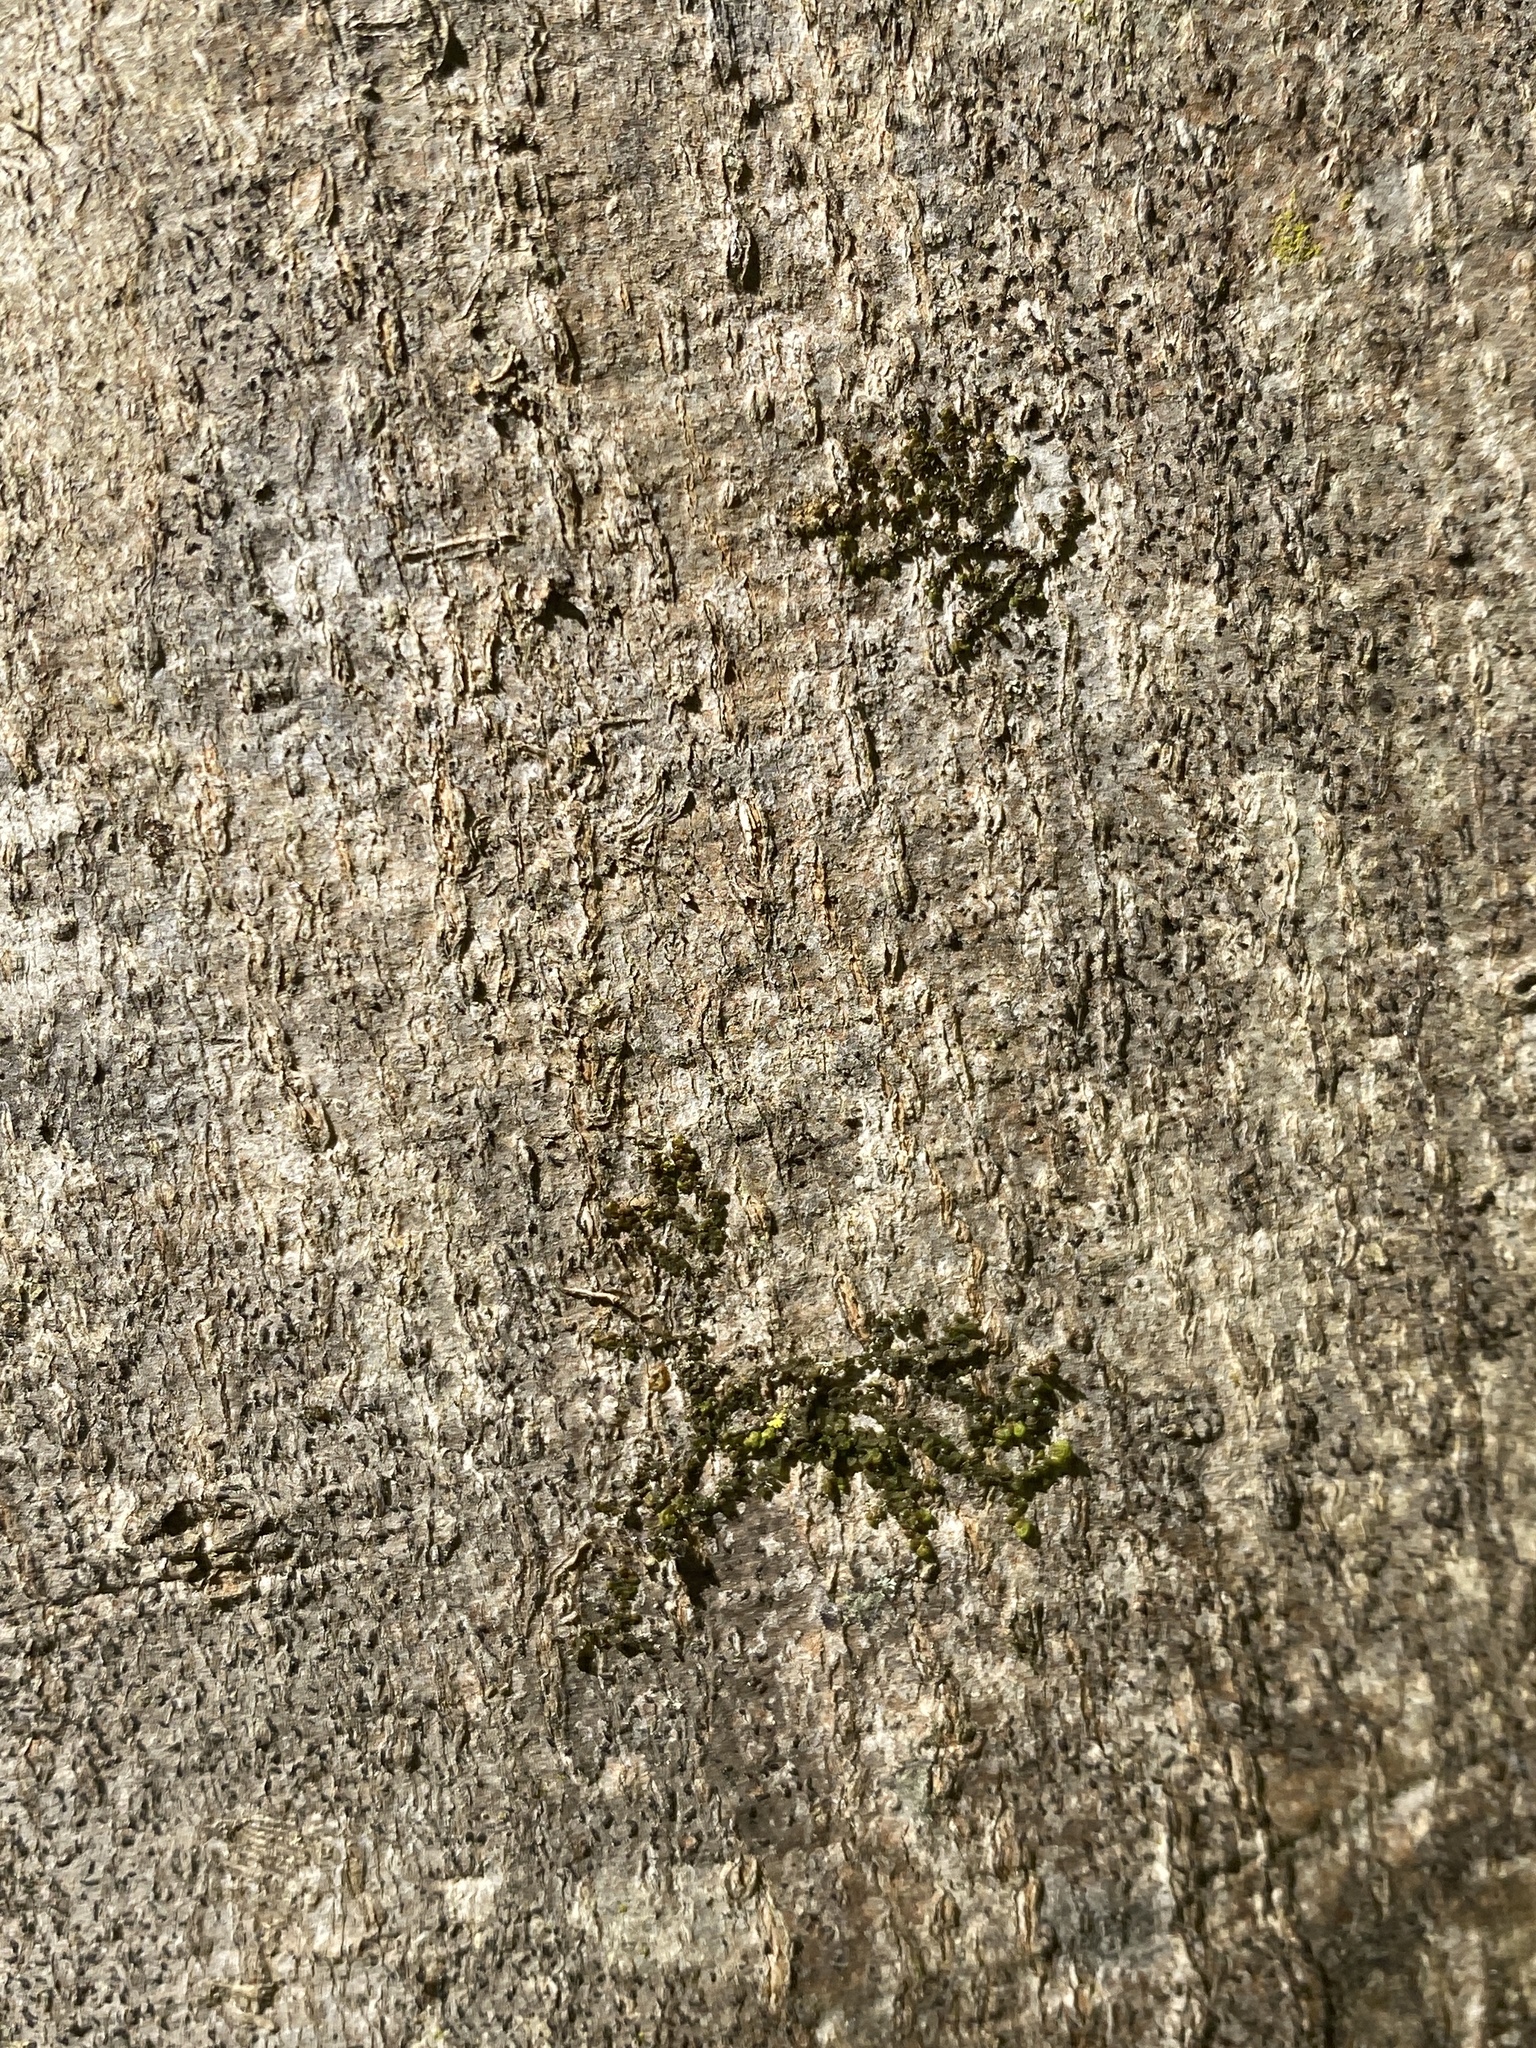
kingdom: Plantae
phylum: Marchantiophyta
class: Jungermanniopsida
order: Porellales
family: Frullaniaceae
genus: Frullania
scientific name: Frullania eboracensis
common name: New york scalewort
